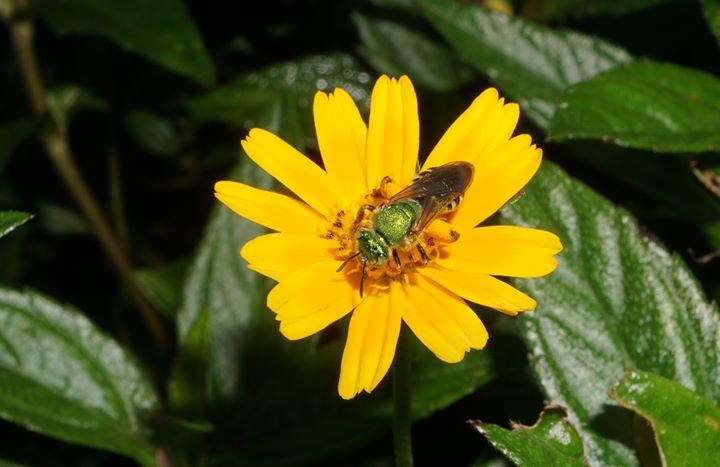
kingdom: Animalia
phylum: Arthropoda
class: Insecta
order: Hymenoptera
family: Halictidae
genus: Agapostemon
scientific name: Agapostemon splendens
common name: Brown-winged striped sweat bee
